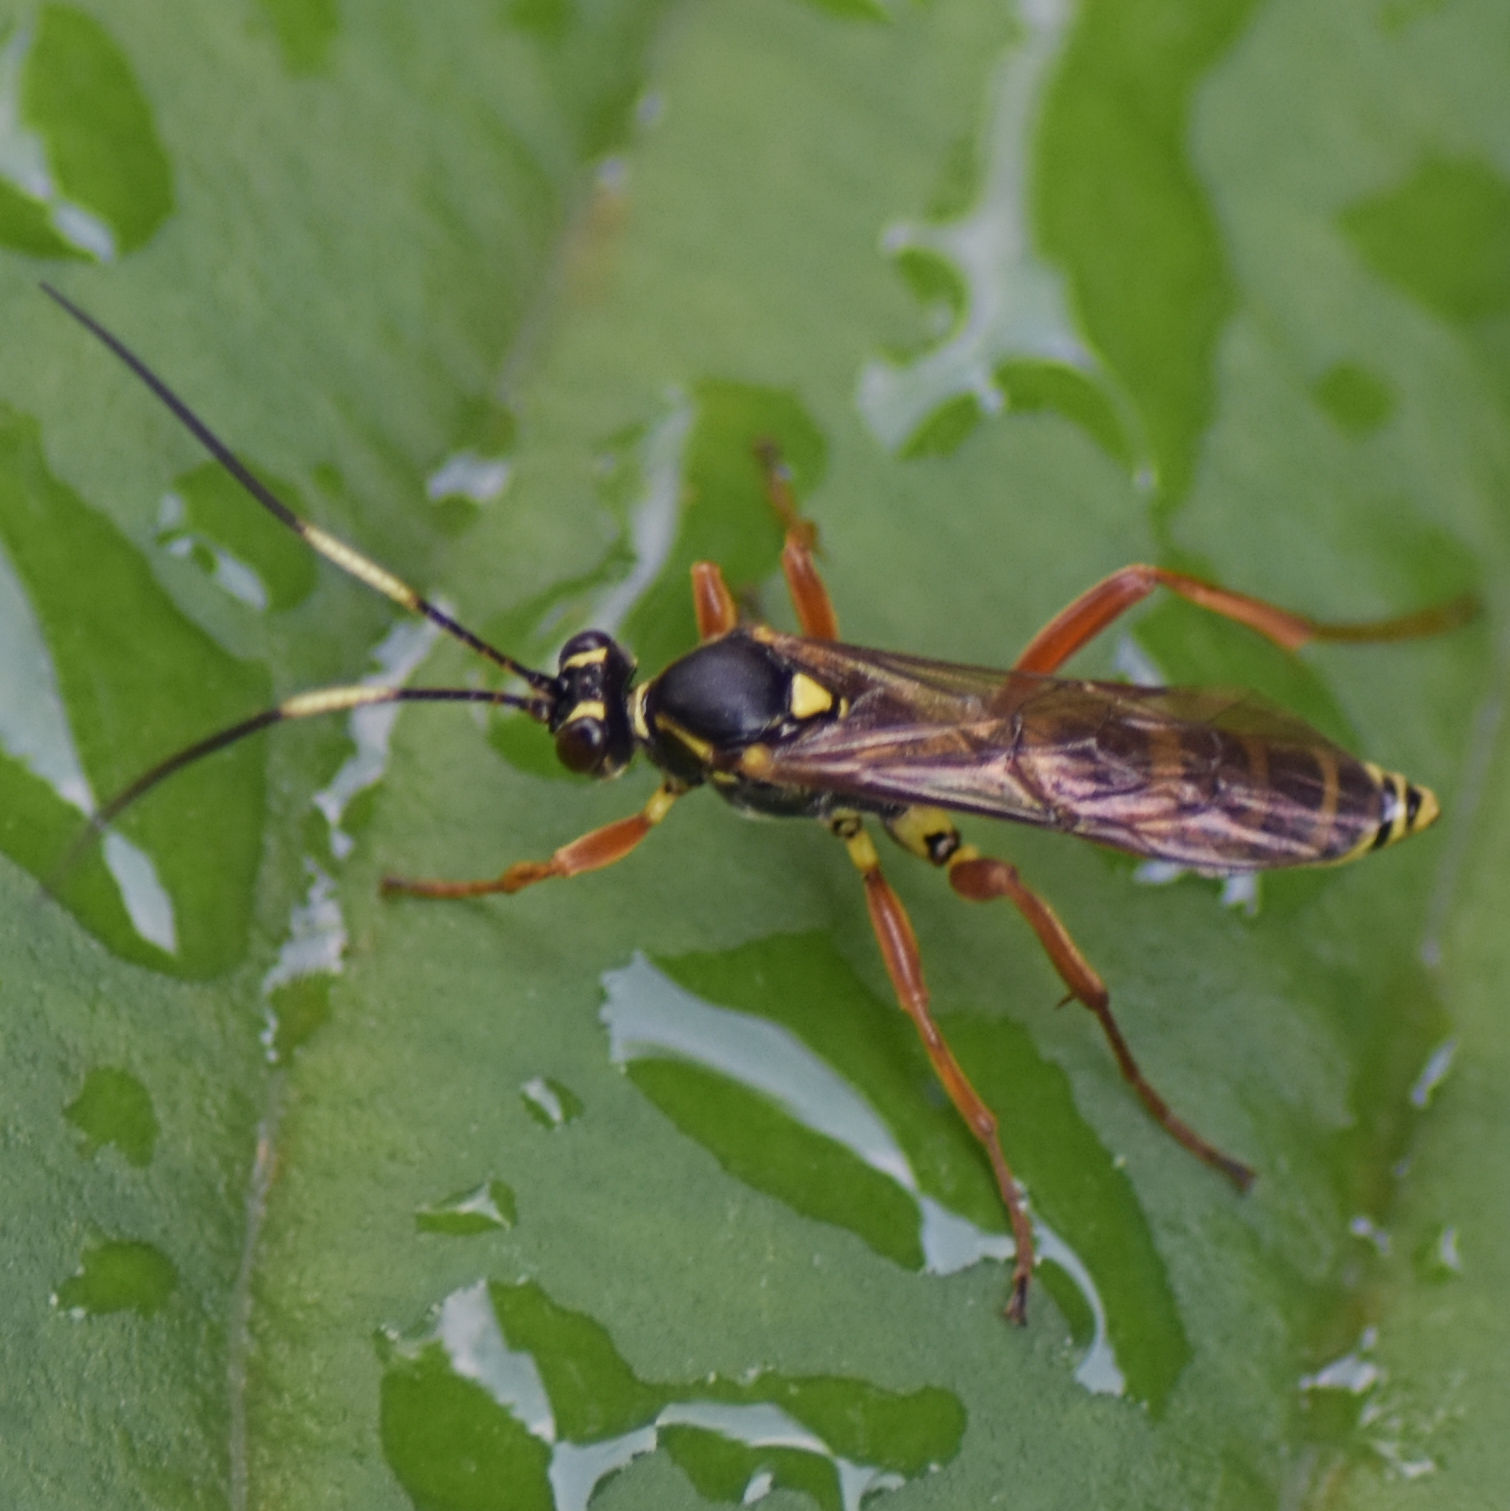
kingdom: Animalia
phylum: Arthropoda
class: Insecta
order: Hymenoptera
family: Ichneumonidae
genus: Setanta
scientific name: Setanta compta
